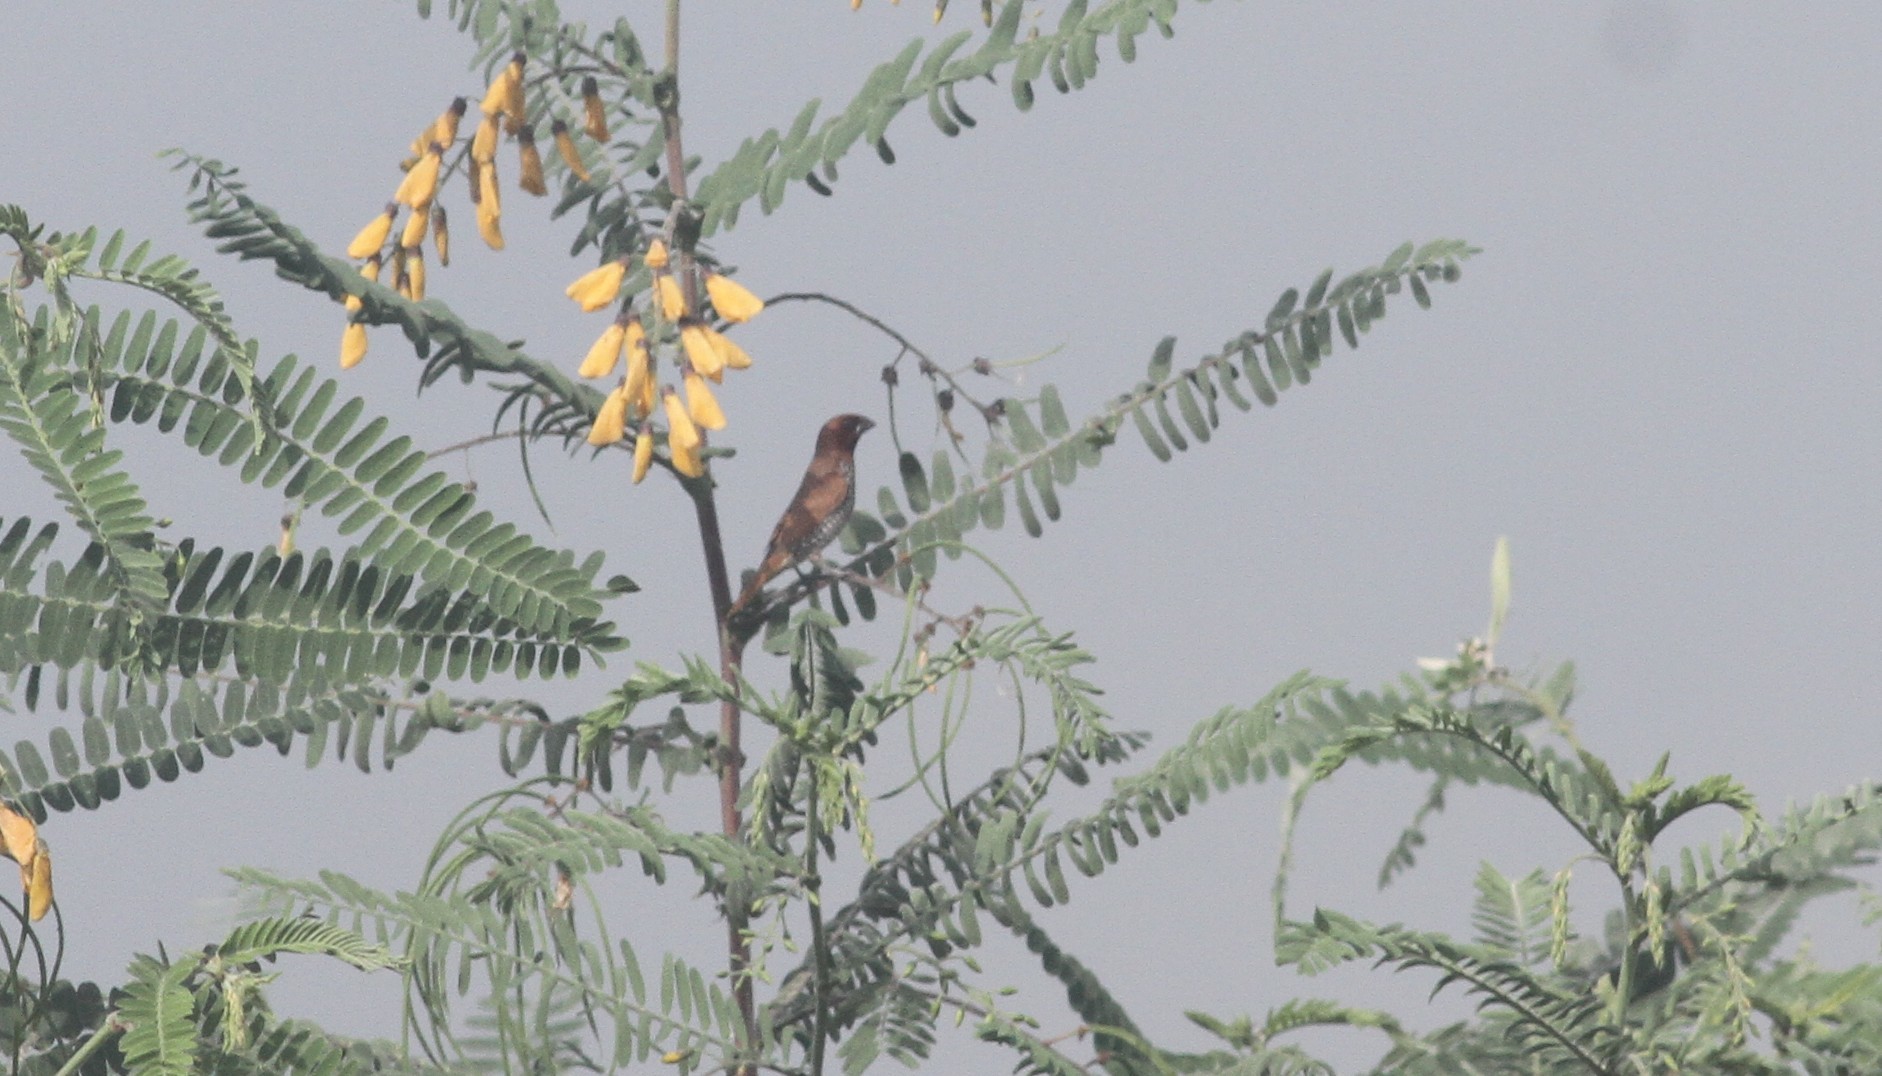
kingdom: Animalia
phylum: Chordata
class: Aves
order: Passeriformes
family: Estrildidae
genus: Lonchura
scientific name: Lonchura punctulata
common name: Scaly-breasted munia
